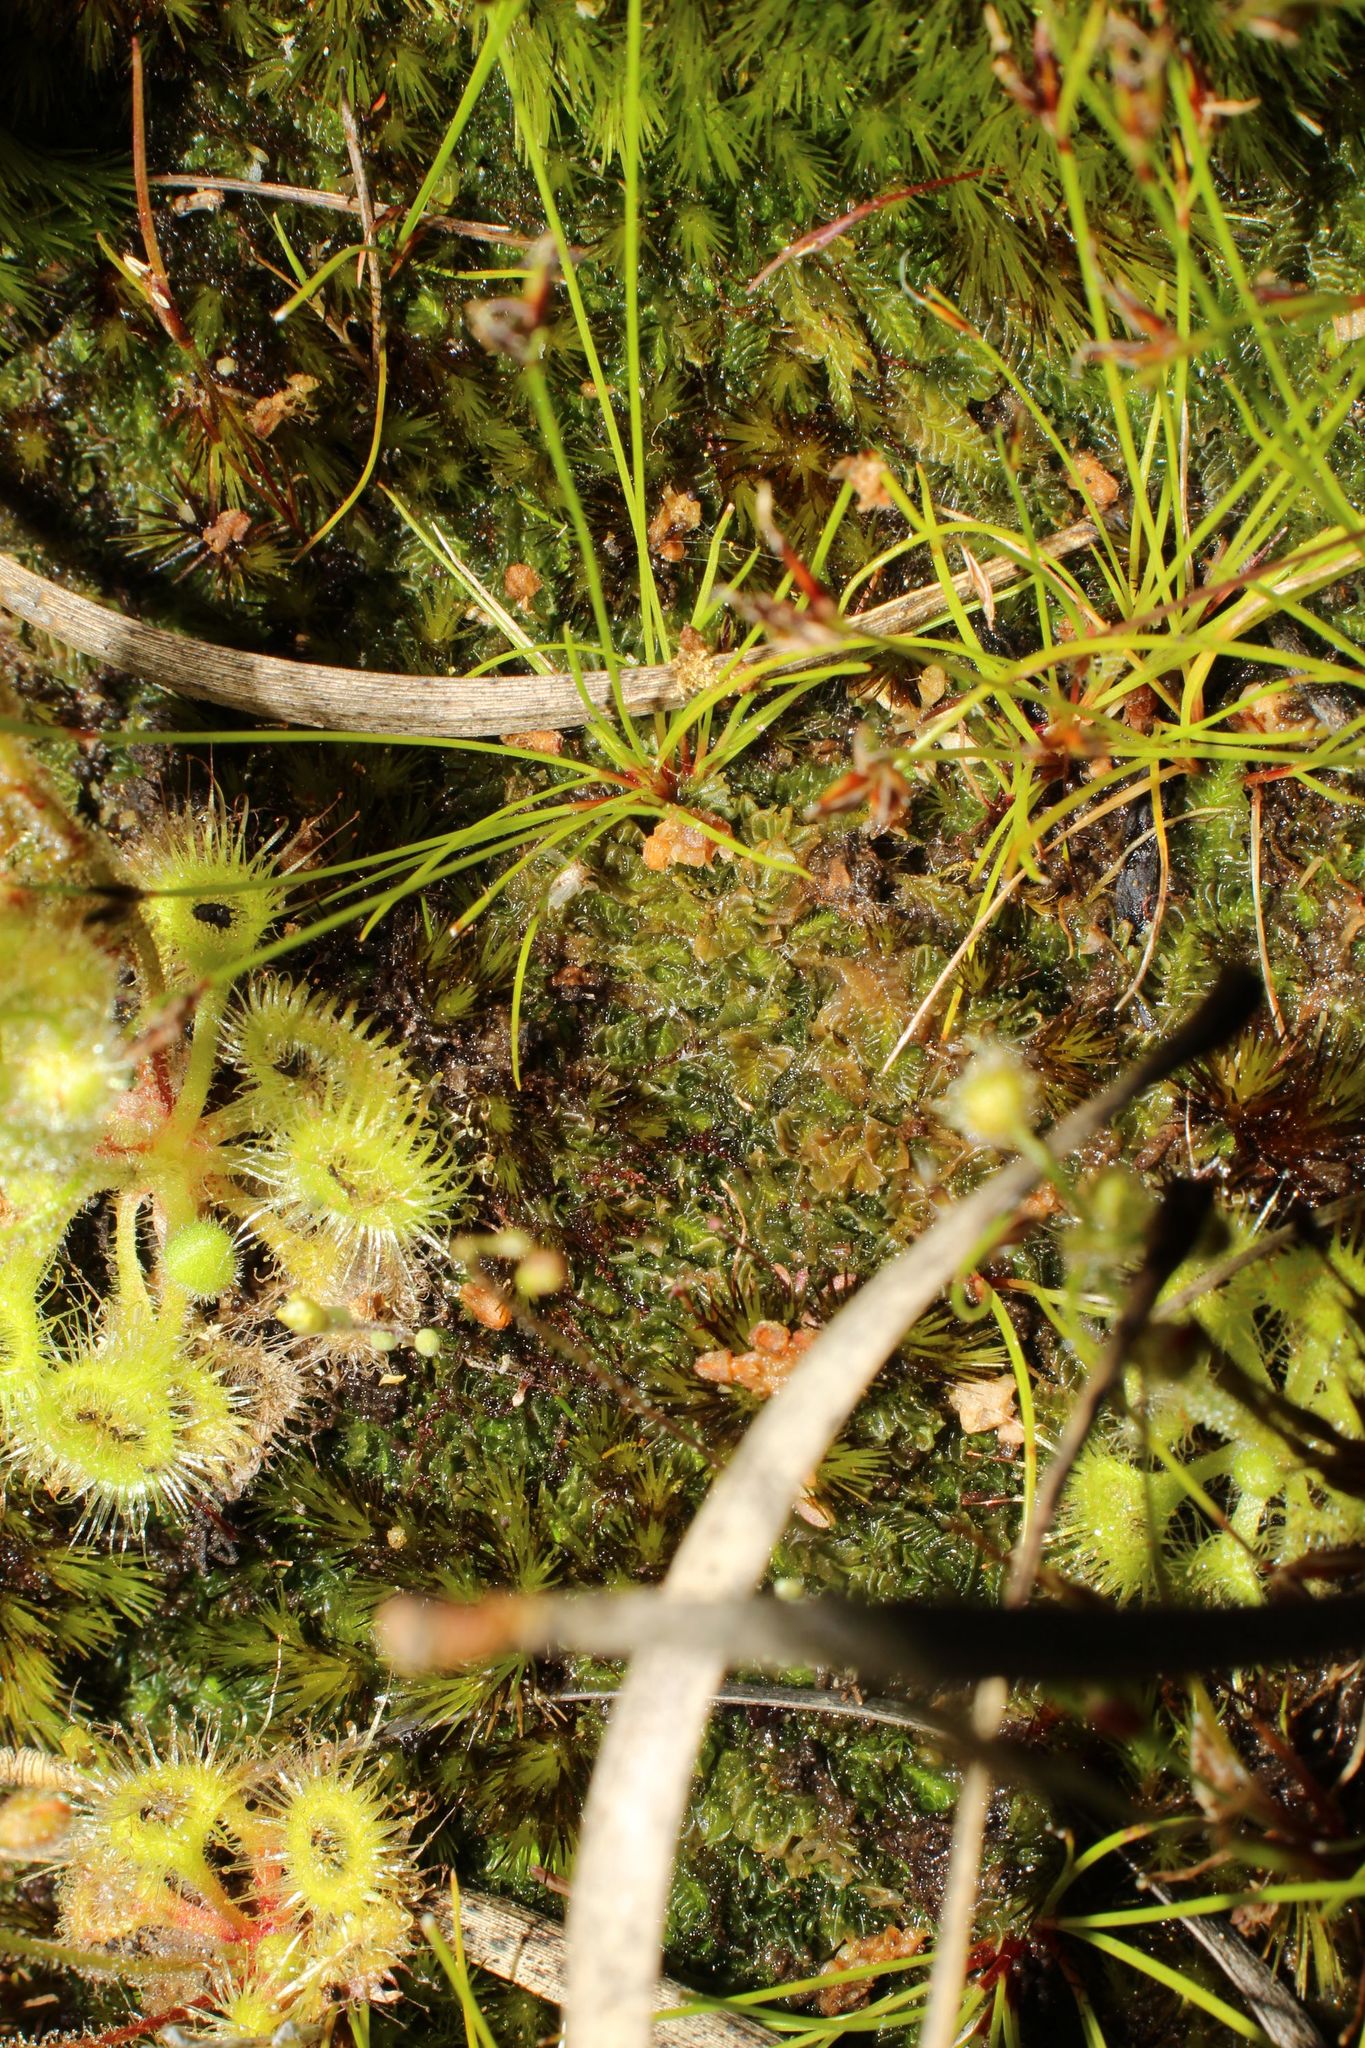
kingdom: Plantae
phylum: Marchantiophyta
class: Jungermanniopsida
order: Jungermanniales
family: Acrobolbaceae
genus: Lethocolea
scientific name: Lethocolea pansa
